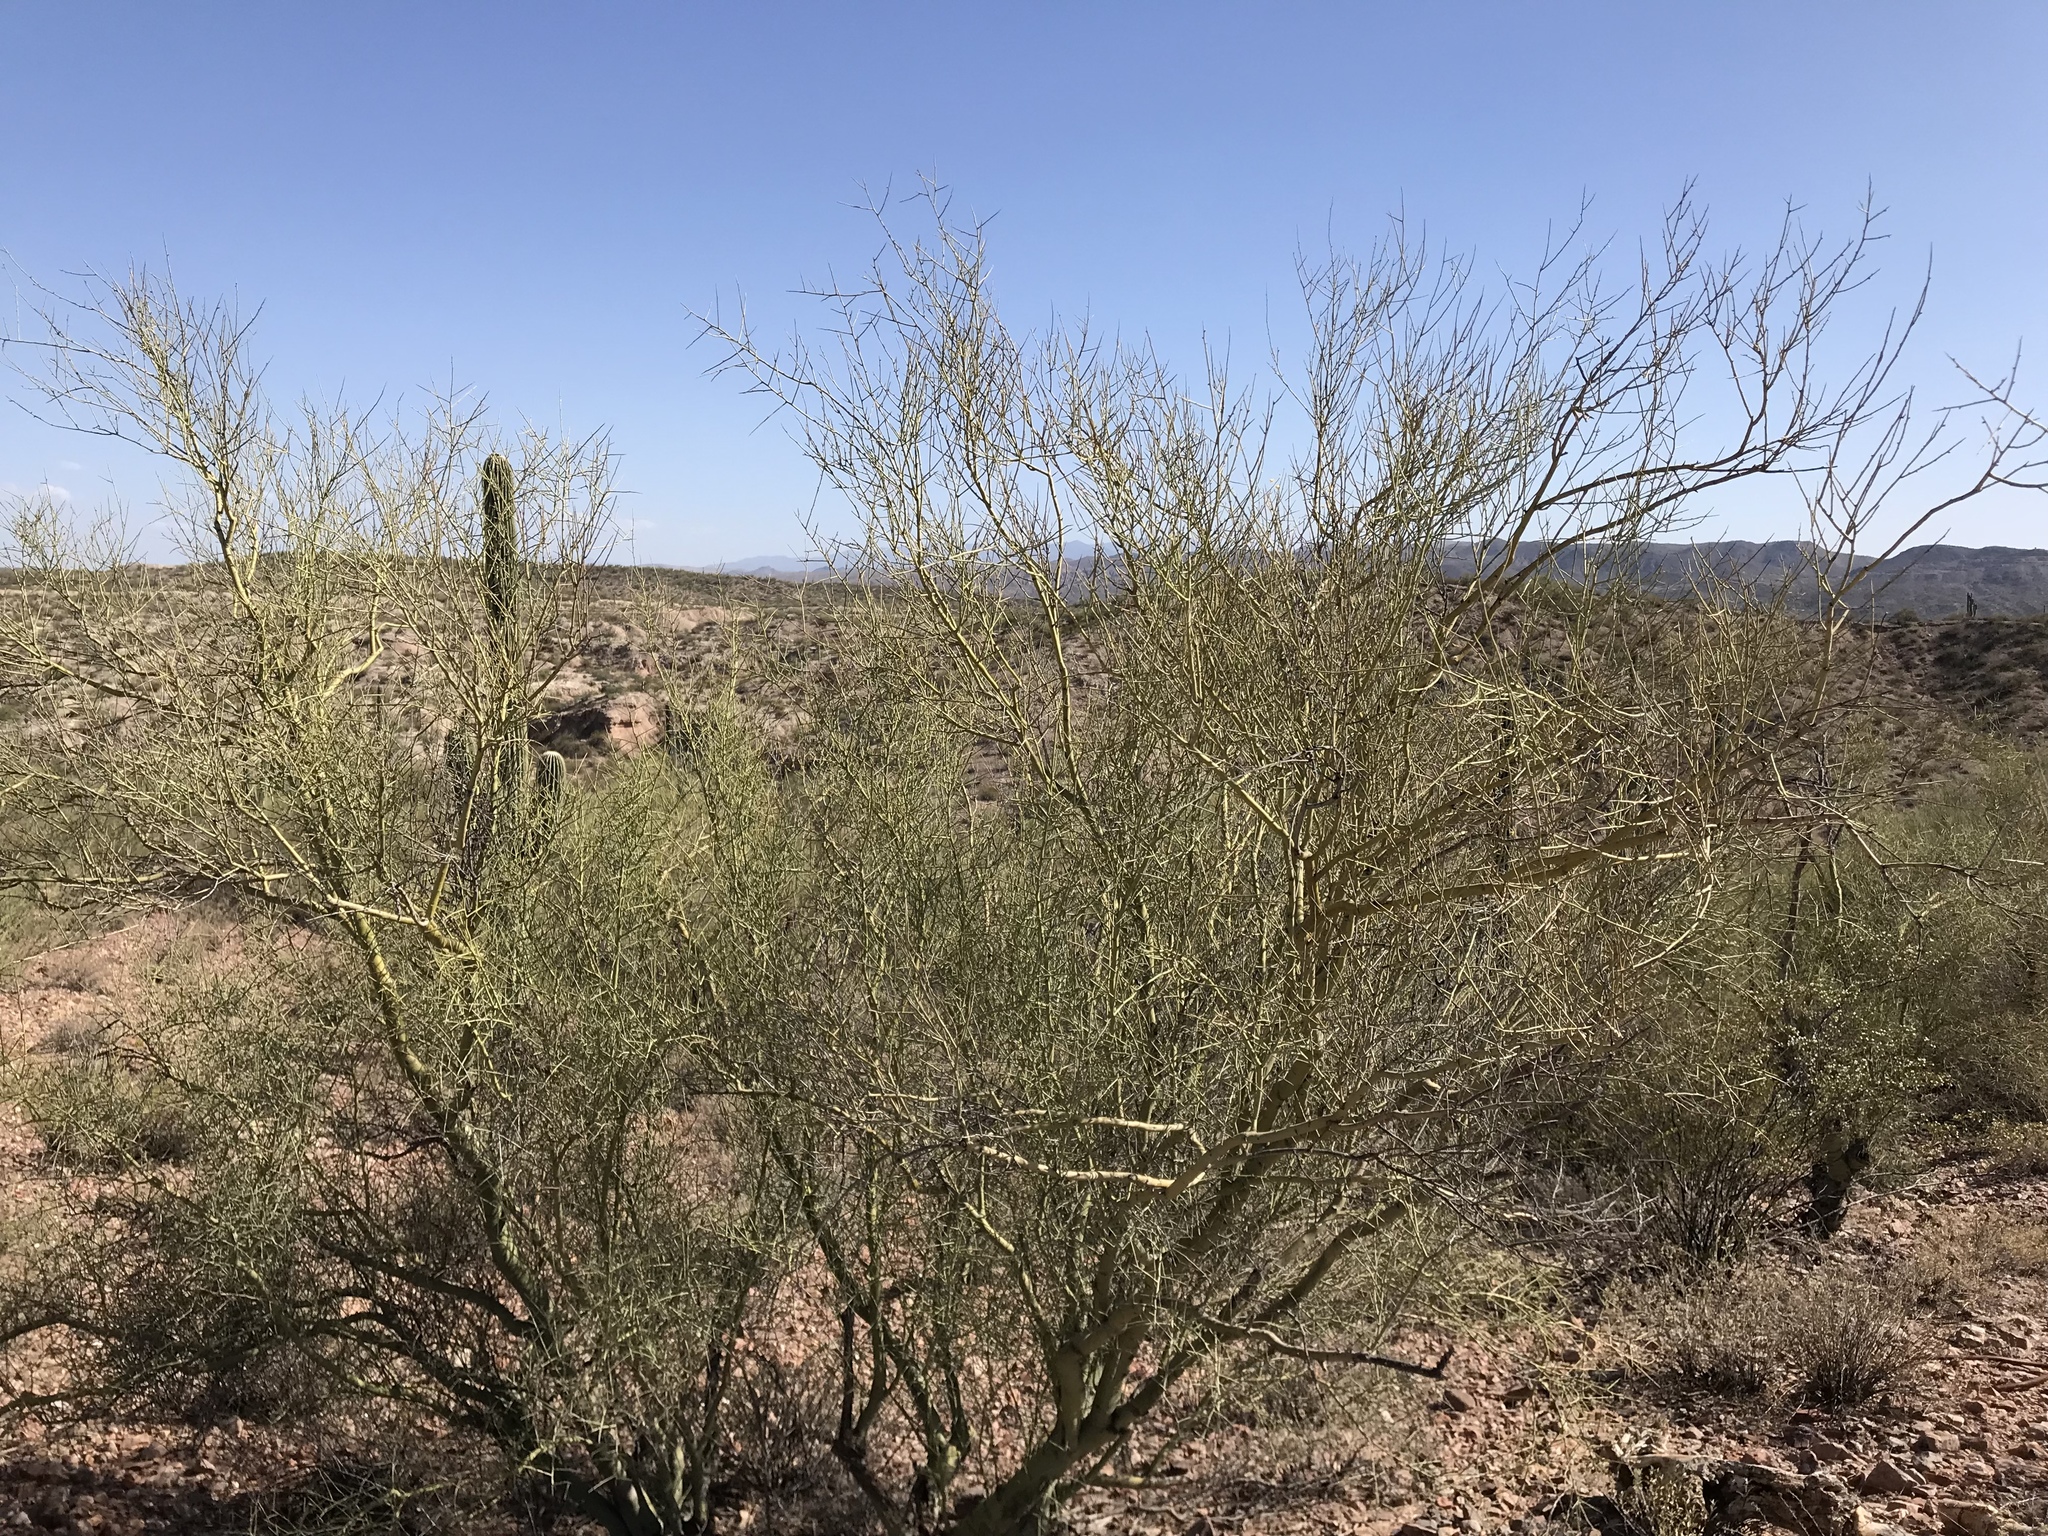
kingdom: Plantae
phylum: Tracheophyta
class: Magnoliopsida
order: Fabales
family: Fabaceae
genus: Parkinsonia
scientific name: Parkinsonia microphylla
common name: Yellow paloverde
